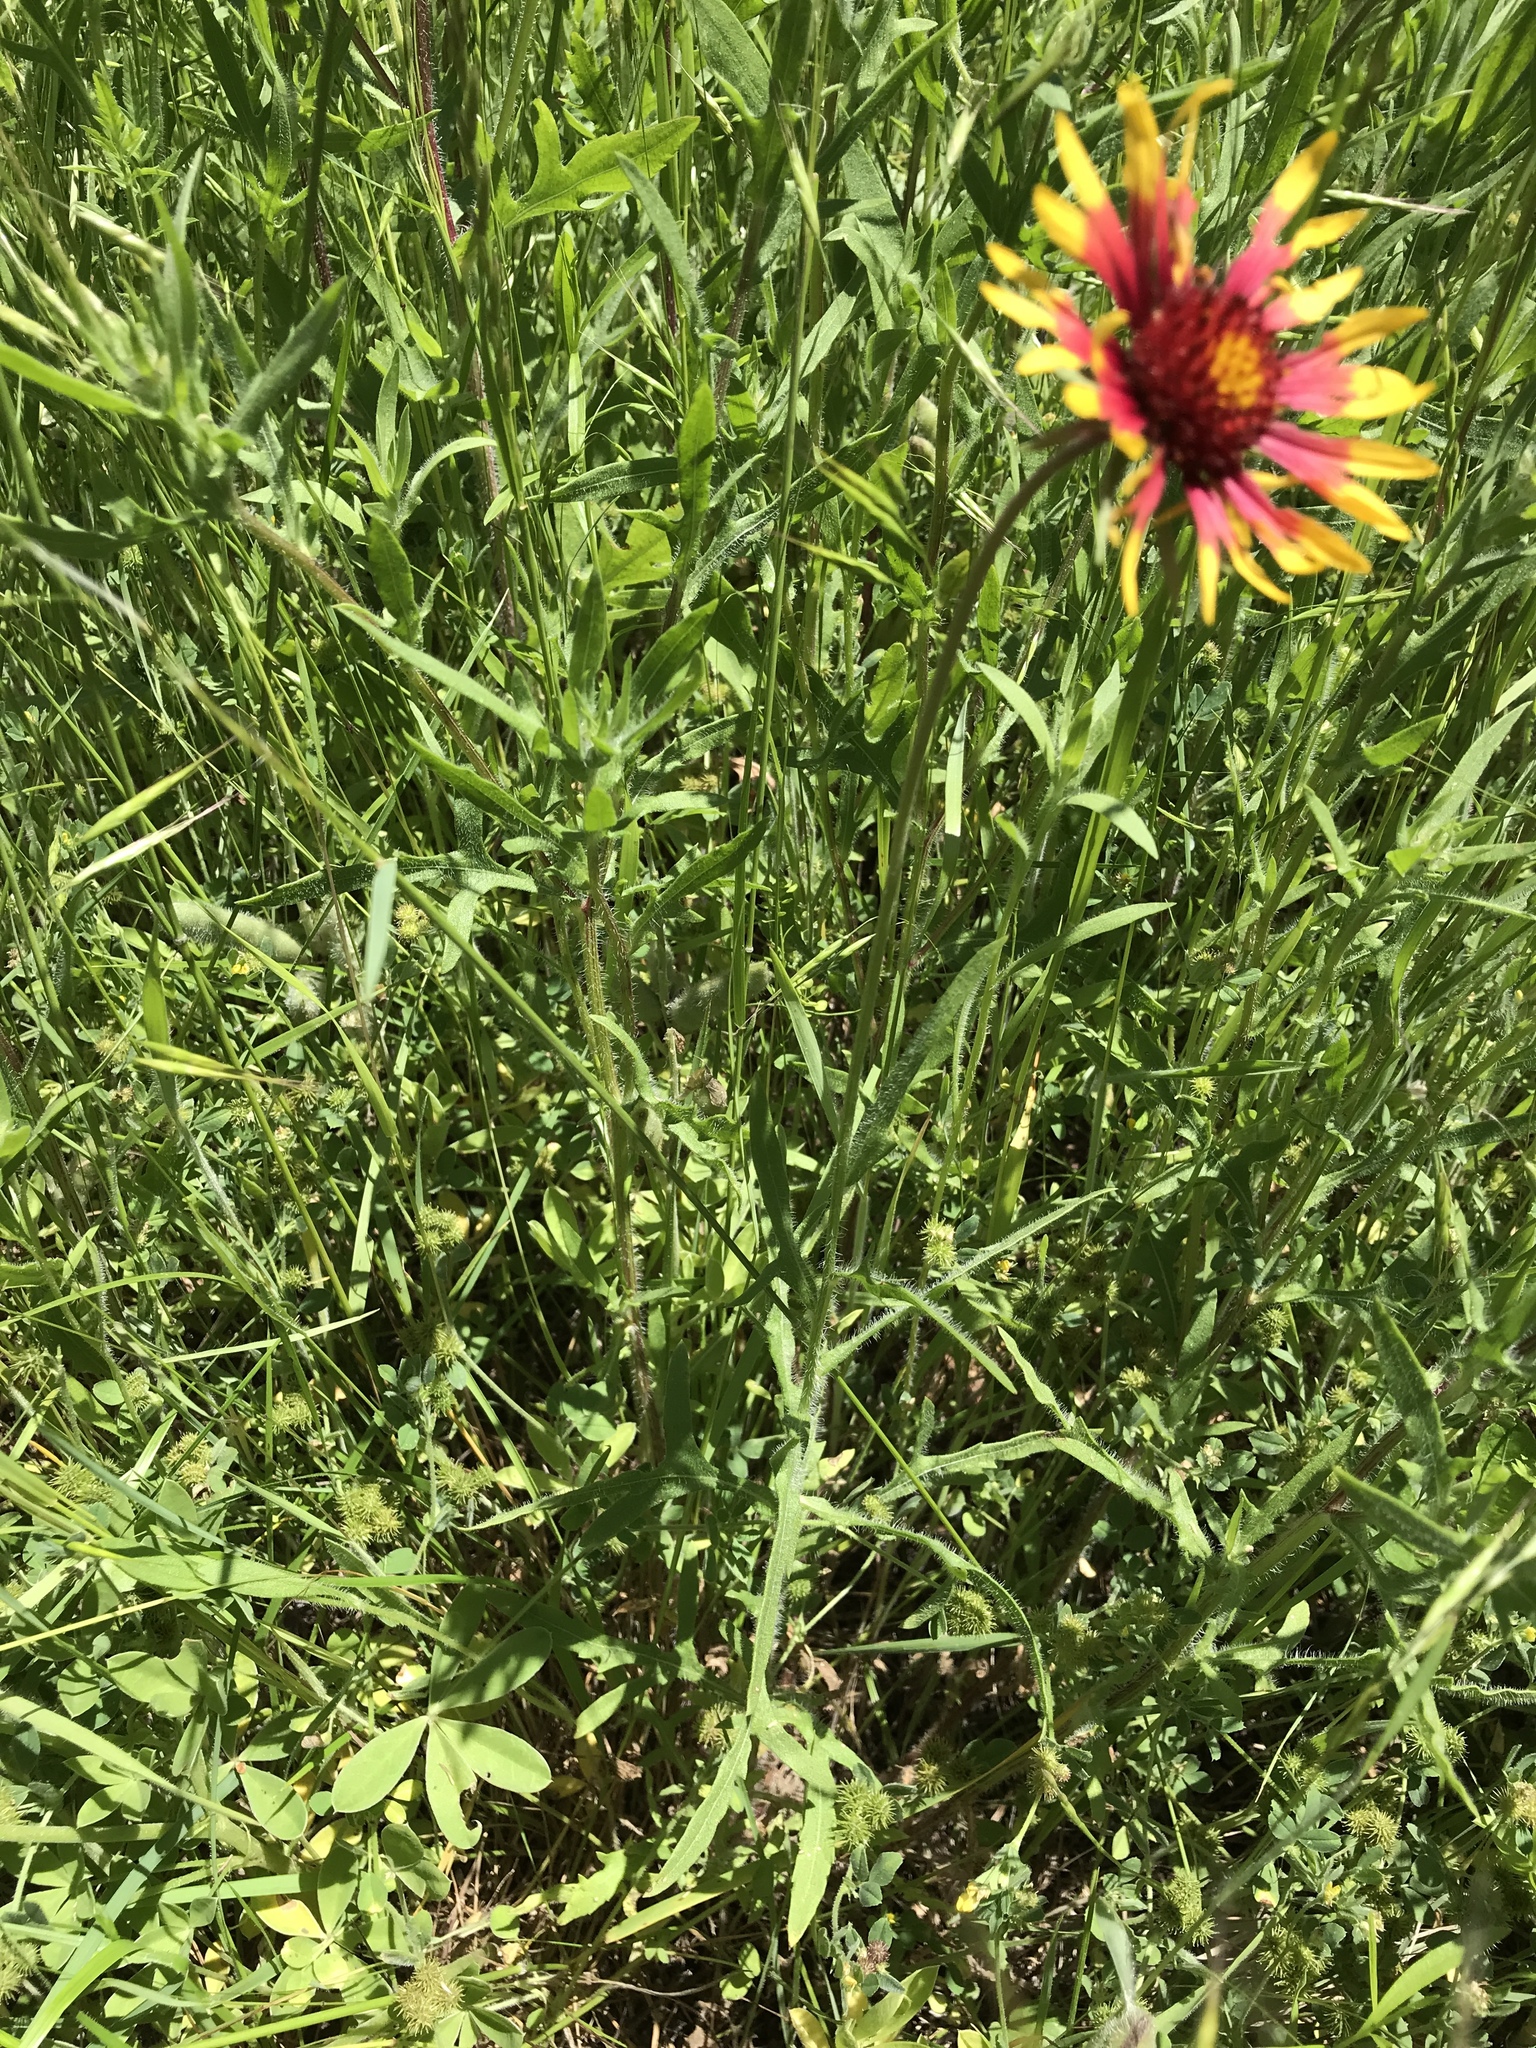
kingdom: Plantae
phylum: Tracheophyta
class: Magnoliopsida
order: Asterales
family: Asteraceae
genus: Gaillardia
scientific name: Gaillardia pulchella
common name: Firewheel
